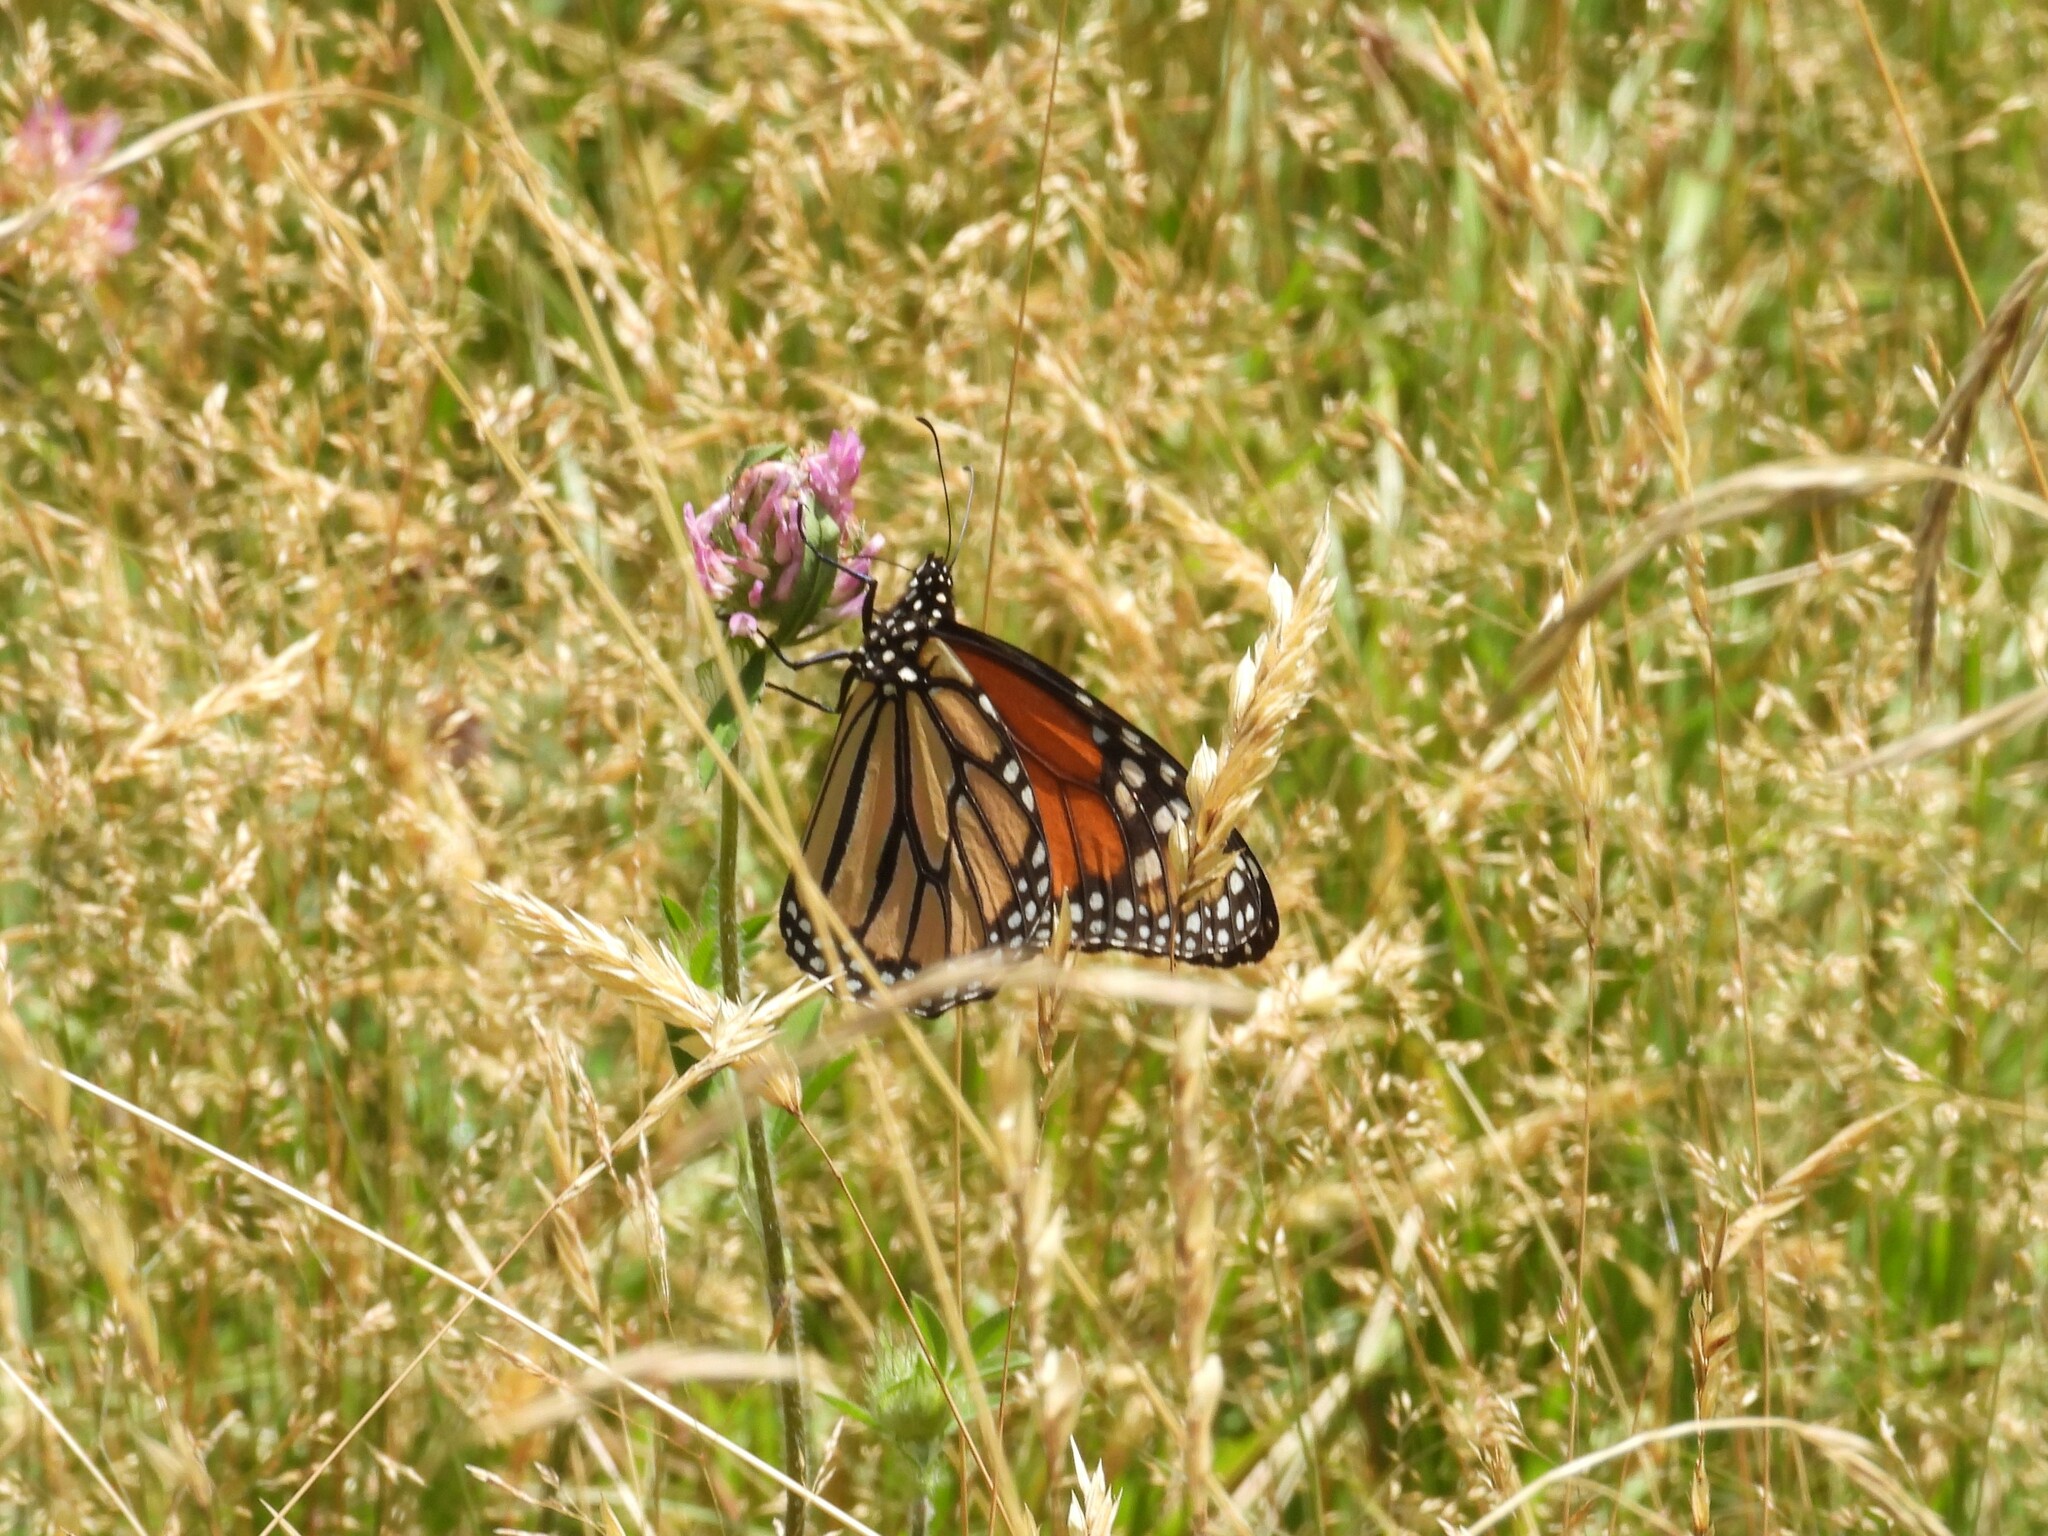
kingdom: Animalia
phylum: Arthropoda
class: Insecta
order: Lepidoptera
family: Nymphalidae
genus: Danaus
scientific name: Danaus plexippus
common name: Monarch
